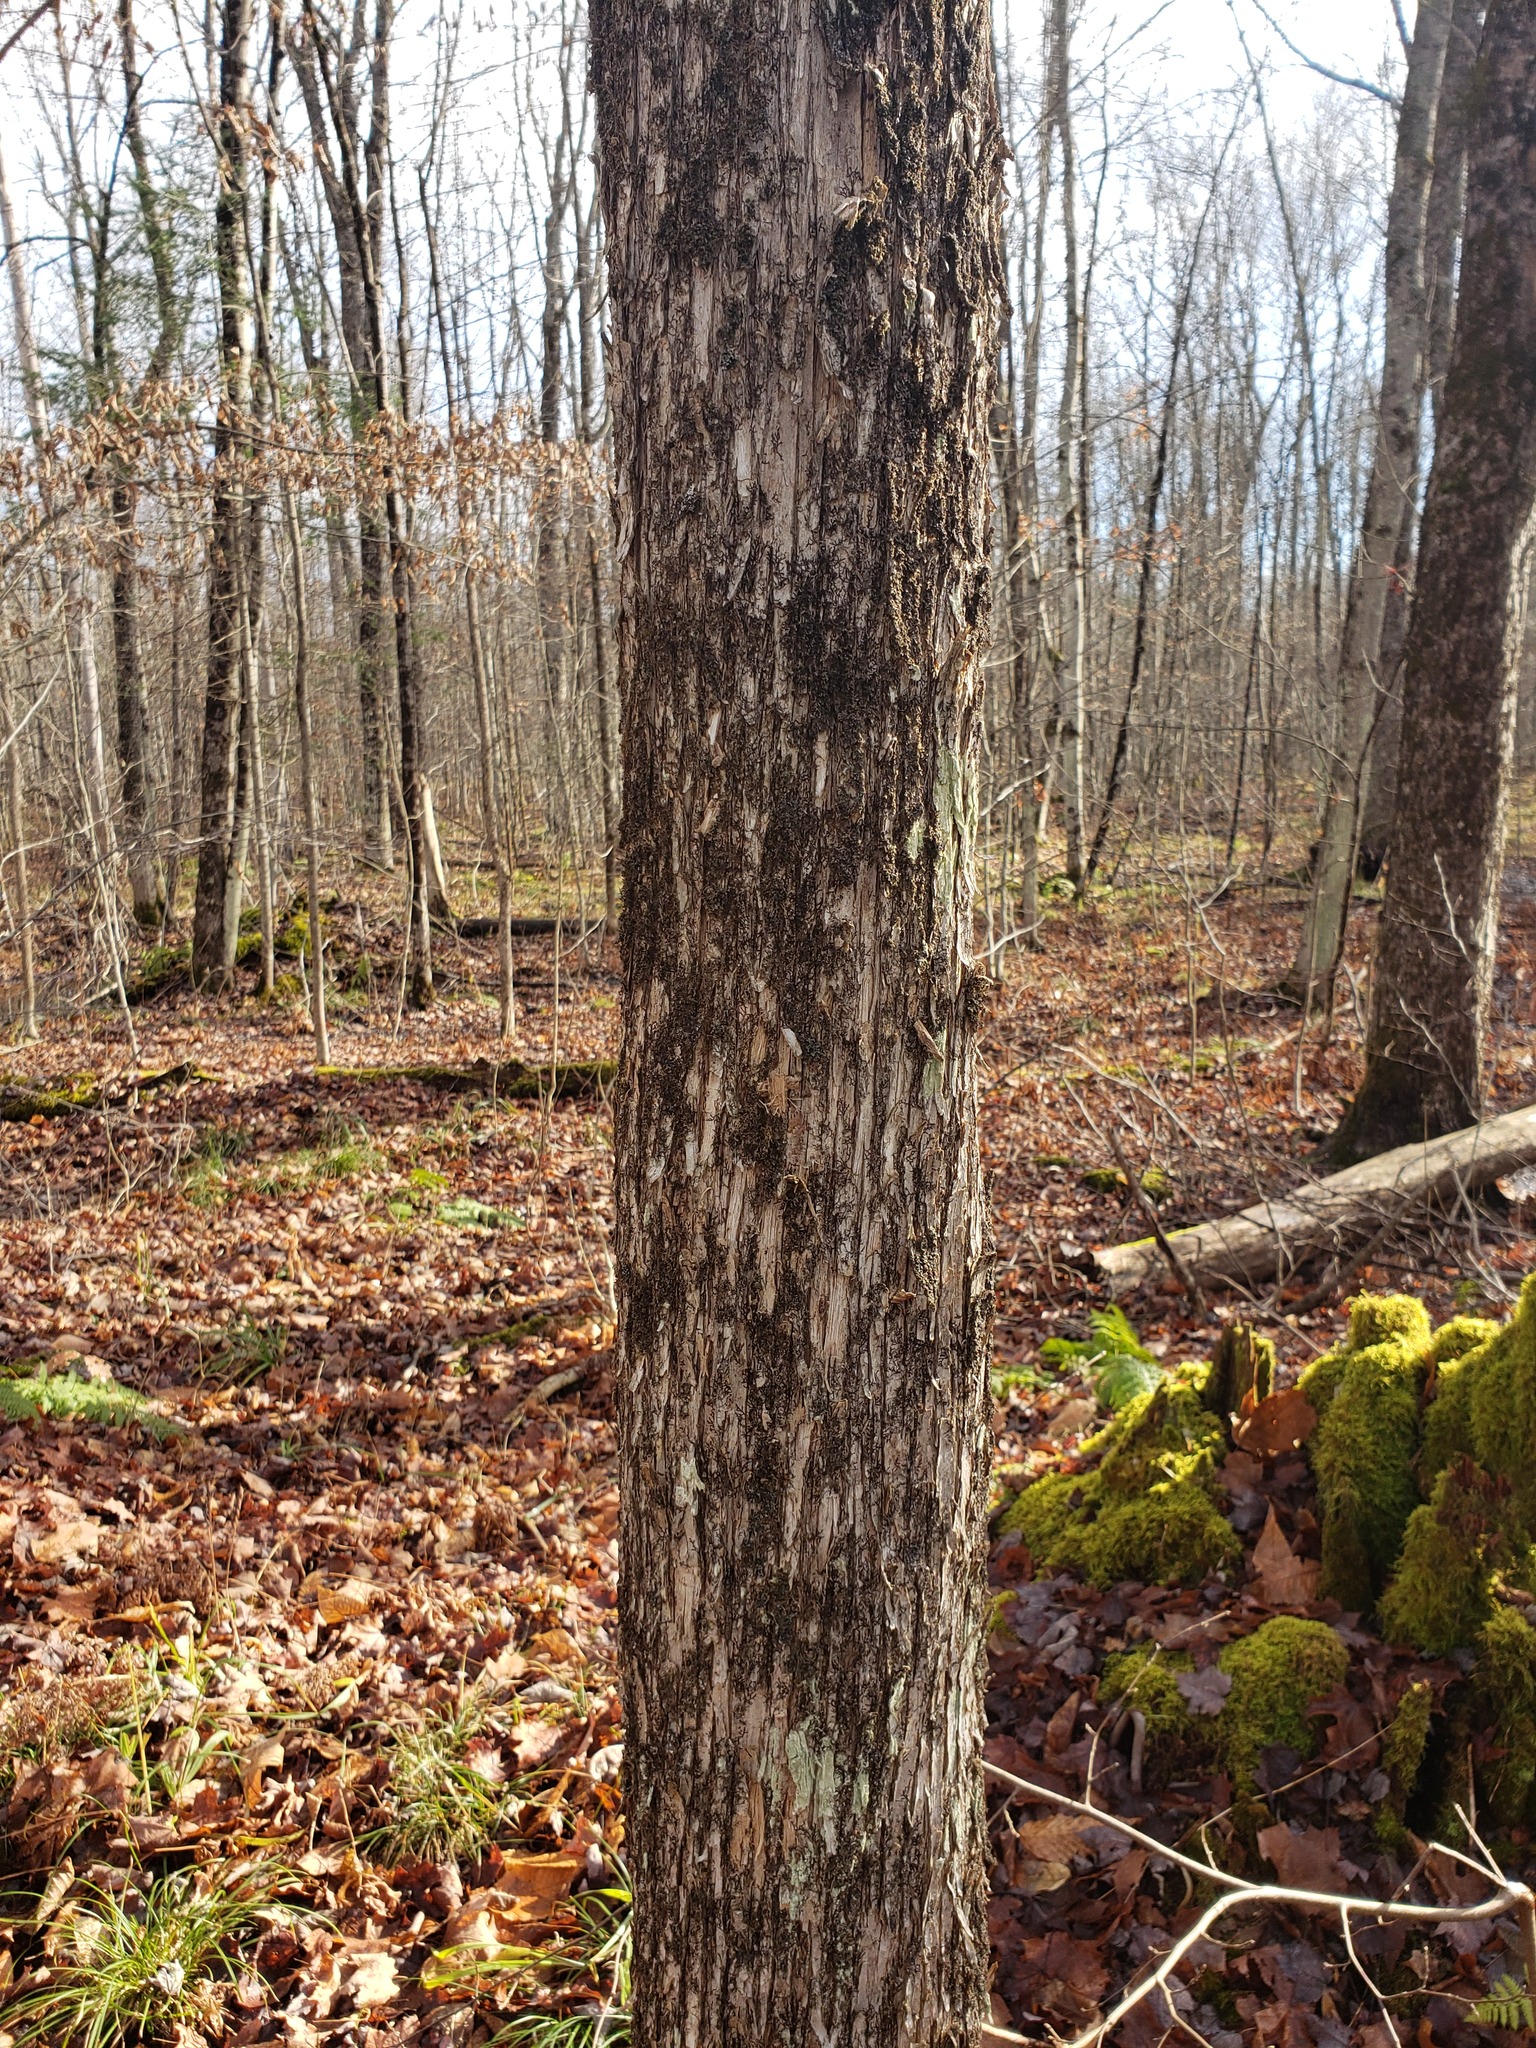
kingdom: Plantae
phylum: Tracheophyta
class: Magnoliopsida
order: Fagales
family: Betulaceae
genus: Ostrya
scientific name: Ostrya virginiana
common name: Ironwood
